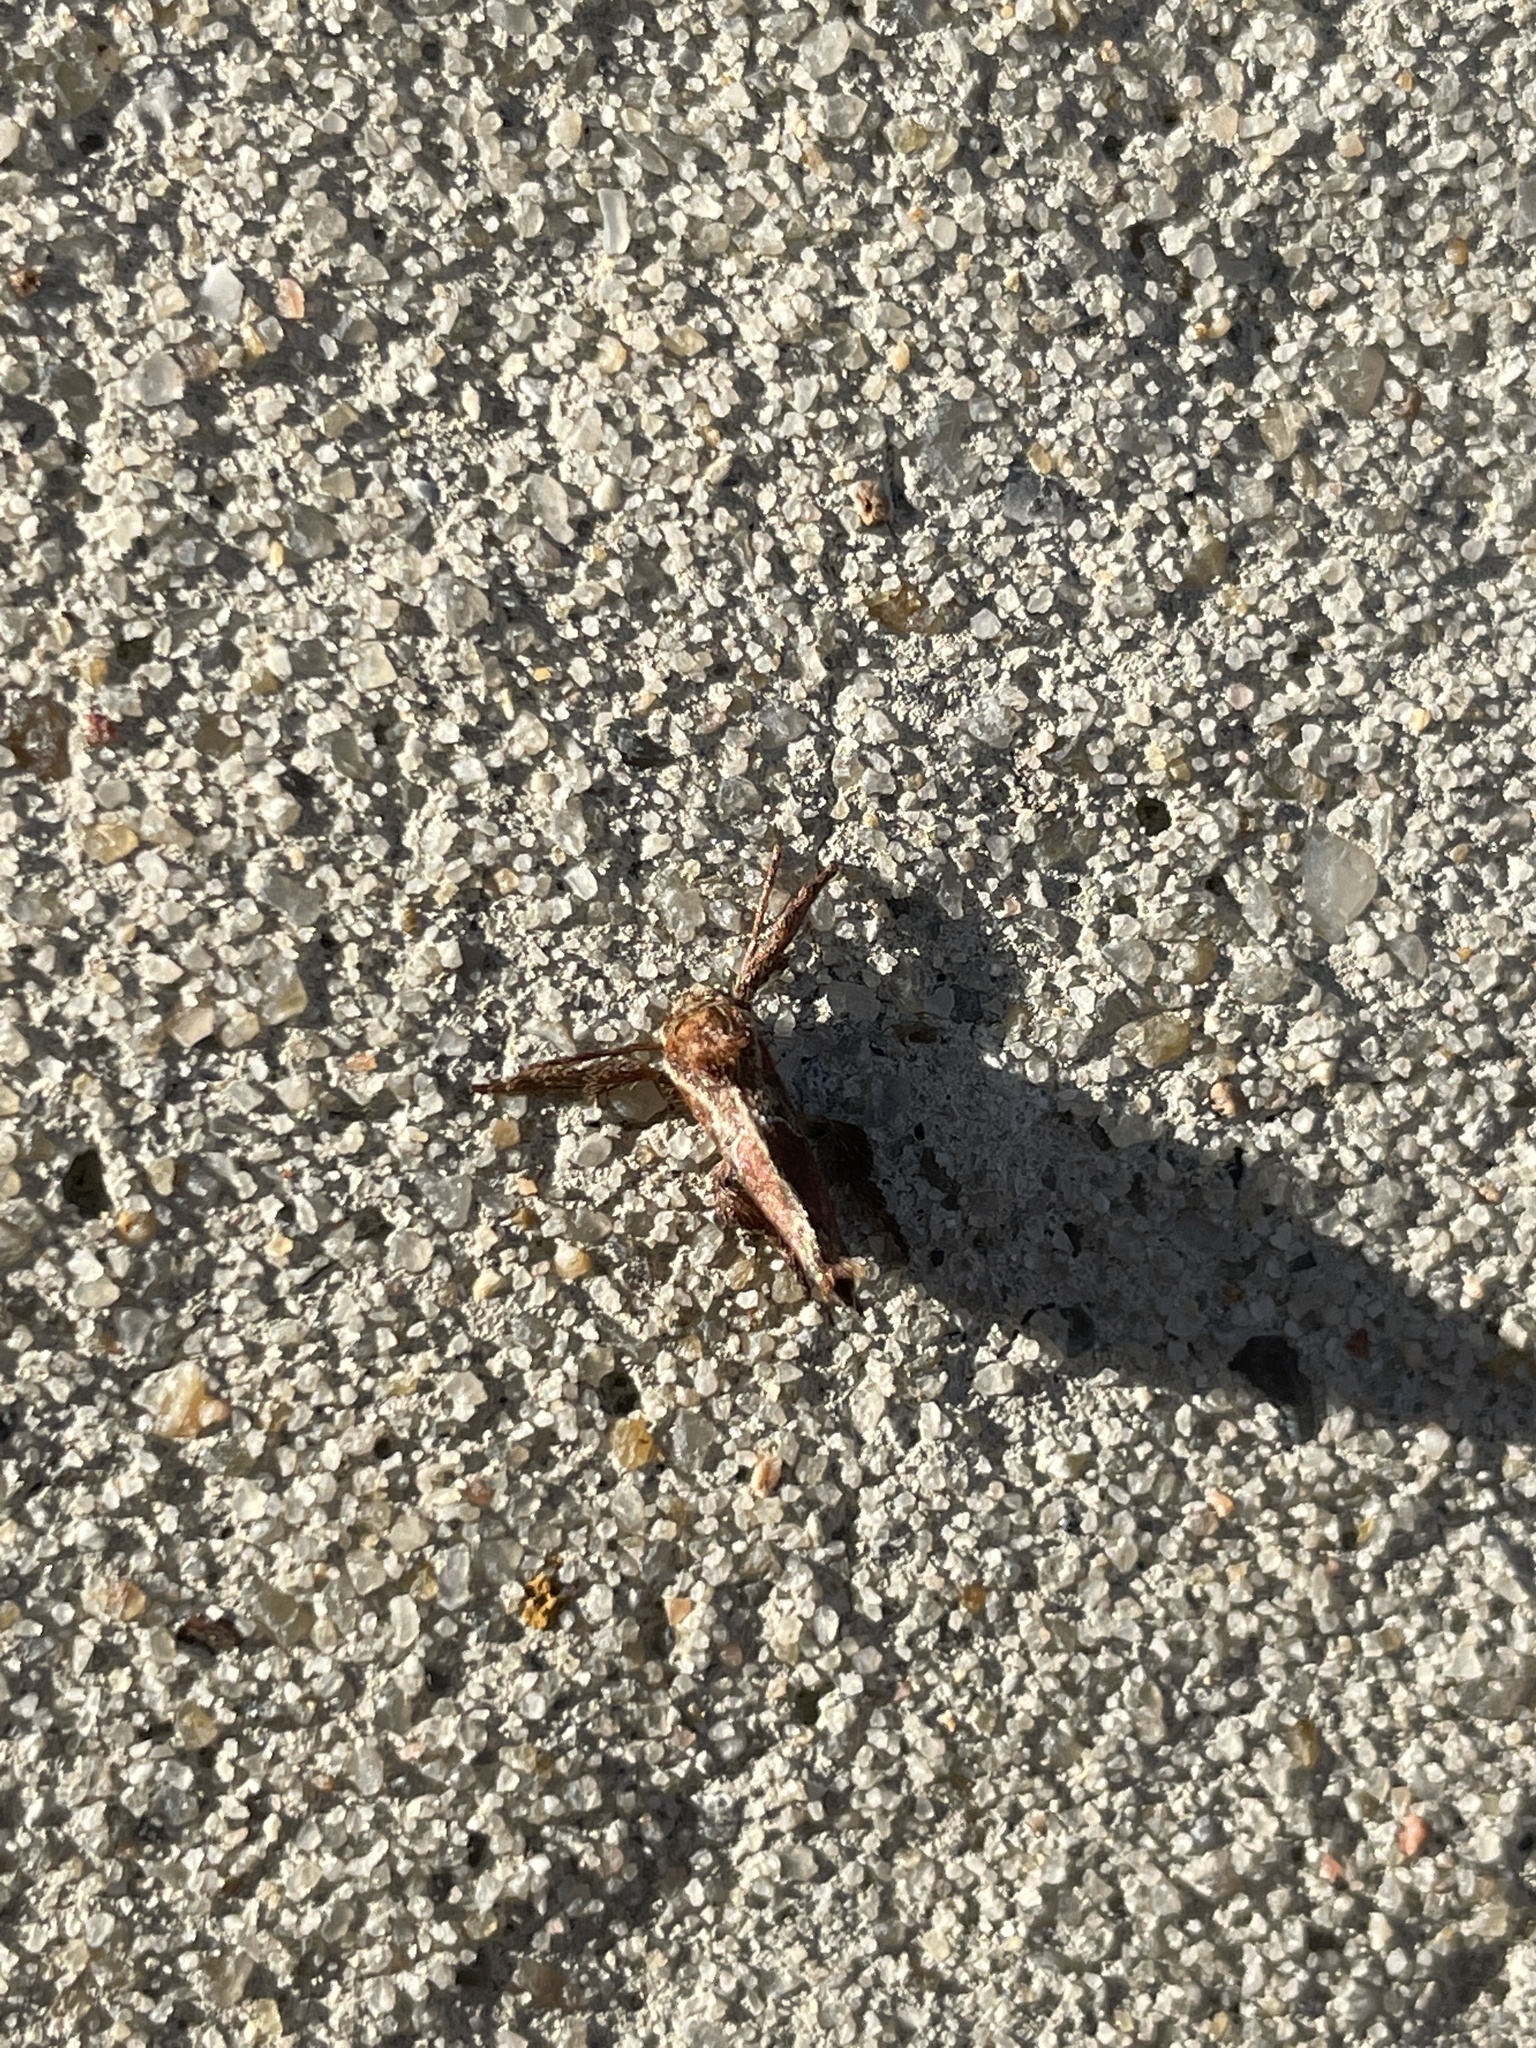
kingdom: Animalia
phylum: Arthropoda
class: Insecta
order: Lepidoptera
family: Limacodidae
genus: Adoneta
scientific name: Adoneta spinuloides
